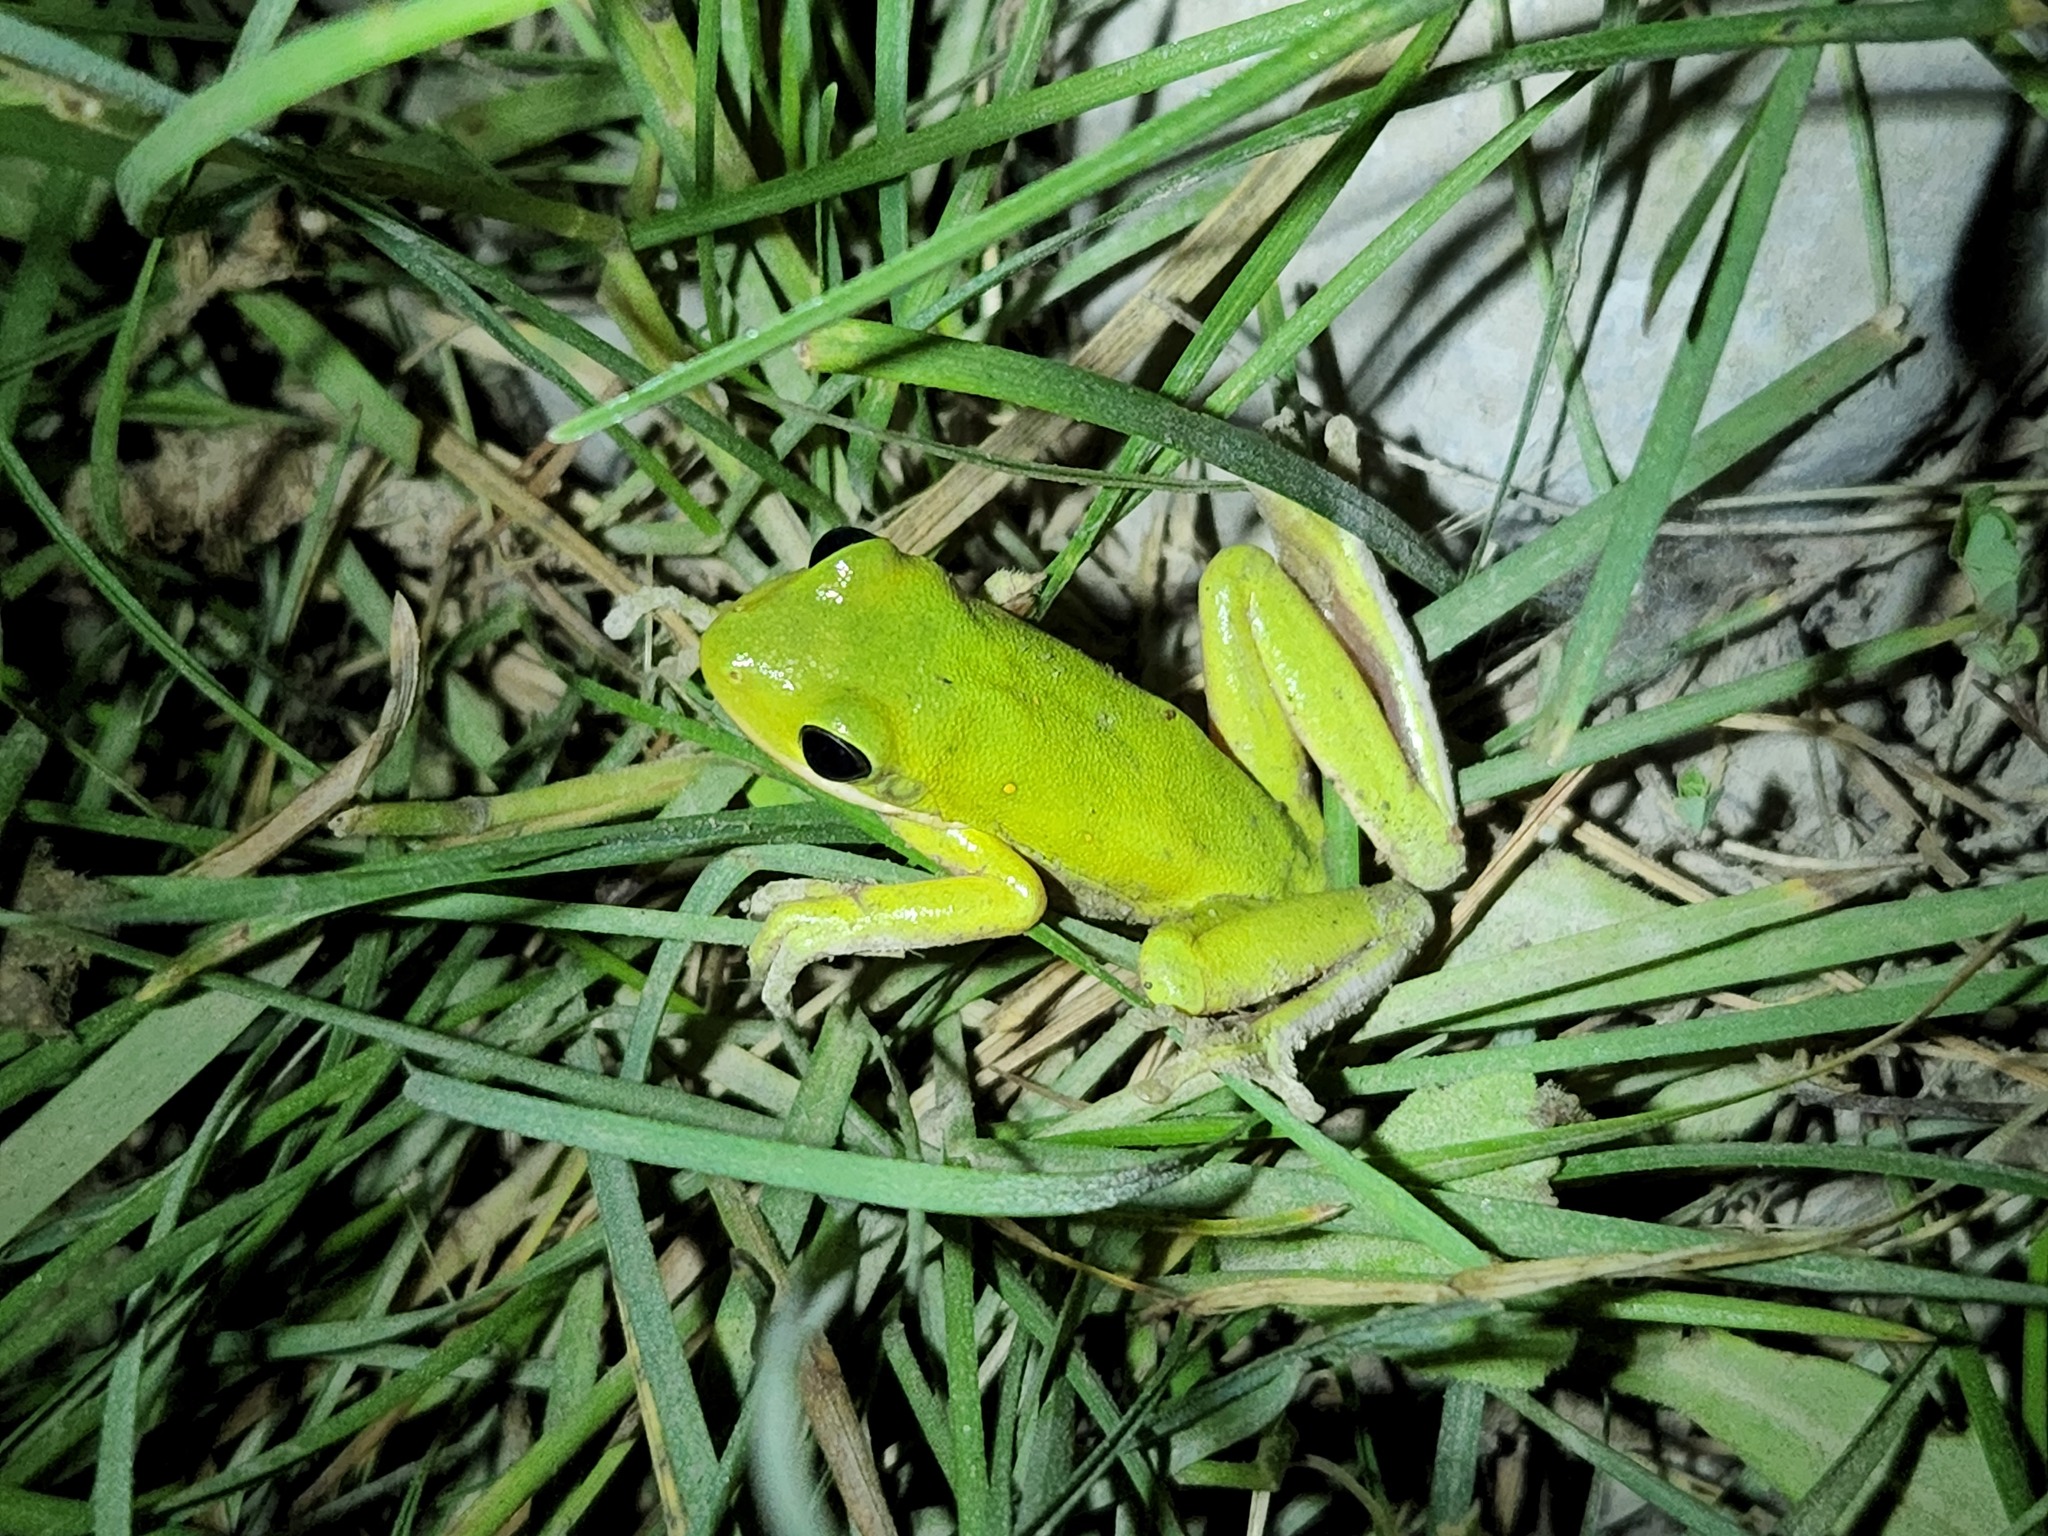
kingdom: Animalia
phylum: Chordata
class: Amphibia
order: Anura
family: Hylidae
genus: Dryophytes
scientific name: Dryophytes cinereus
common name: Green treefrog
